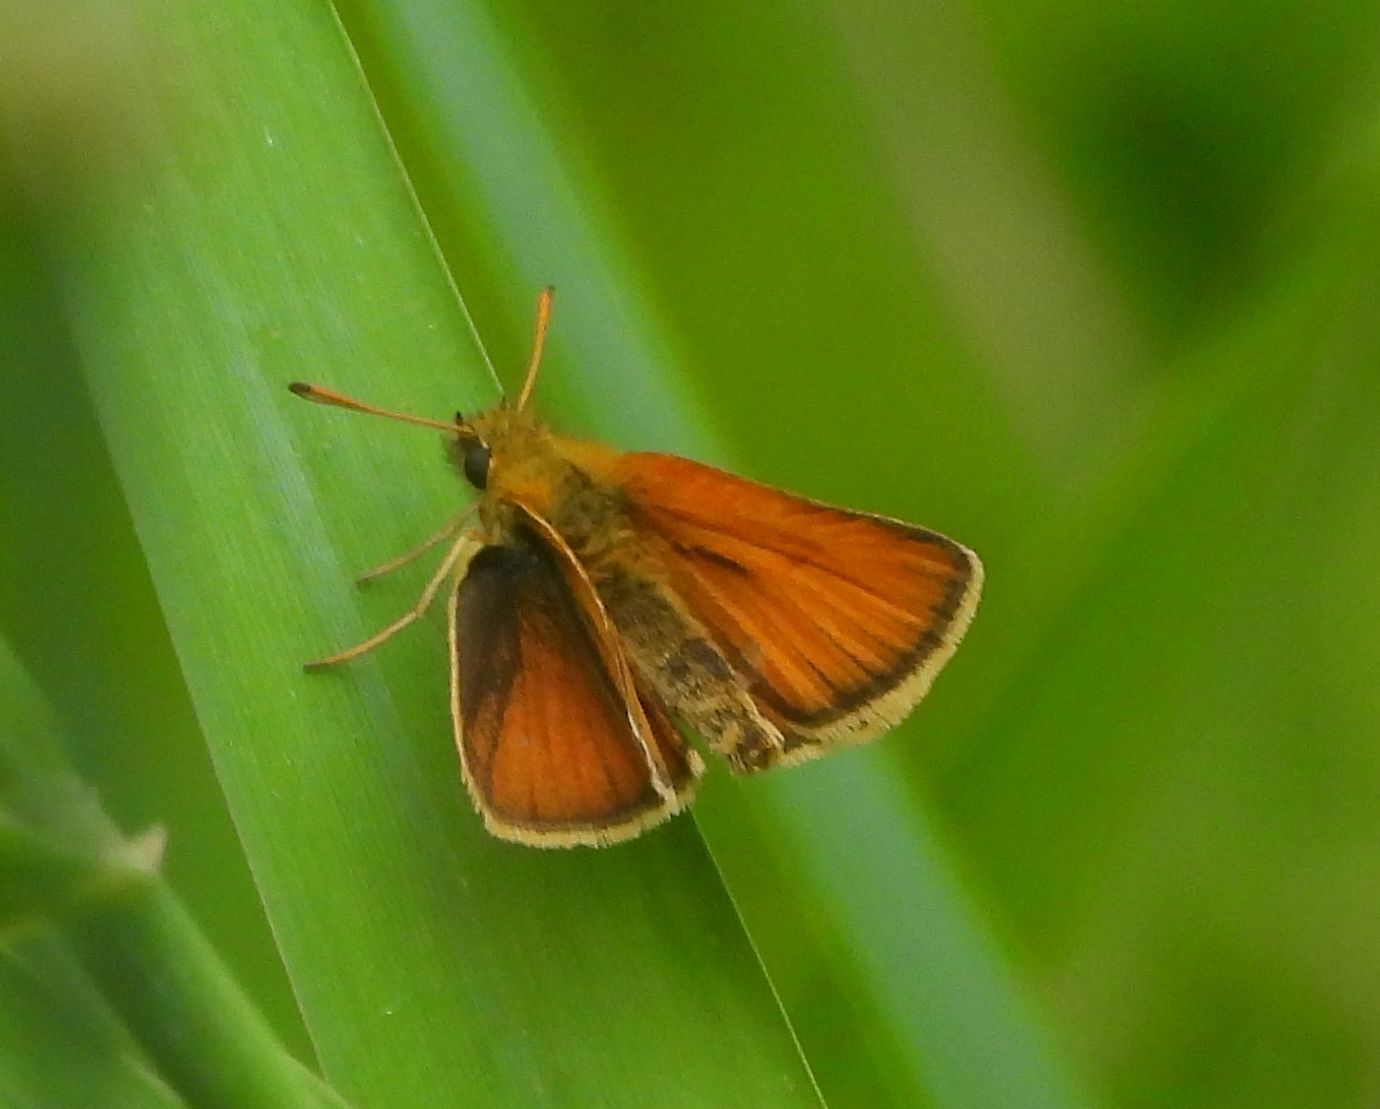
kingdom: Animalia
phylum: Arthropoda
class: Insecta
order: Lepidoptera
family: Hesperiidae
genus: Thymelicus
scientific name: Thymelicus lineola
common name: Essex skipper
